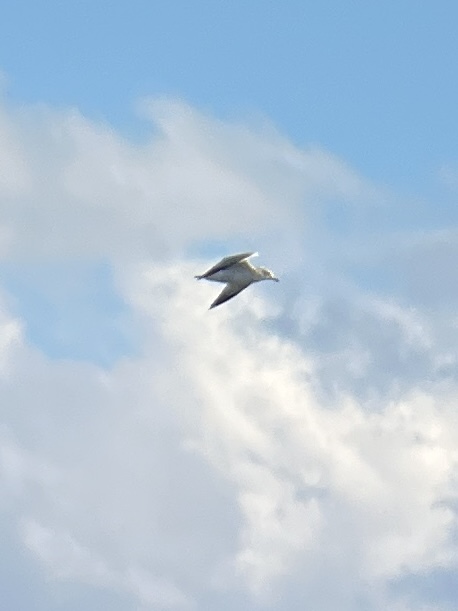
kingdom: Animalia
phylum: Chordata
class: Aves
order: Charadriiformes
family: Laridae
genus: Larus
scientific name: Larus delawarensis
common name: Ring-billed gull
